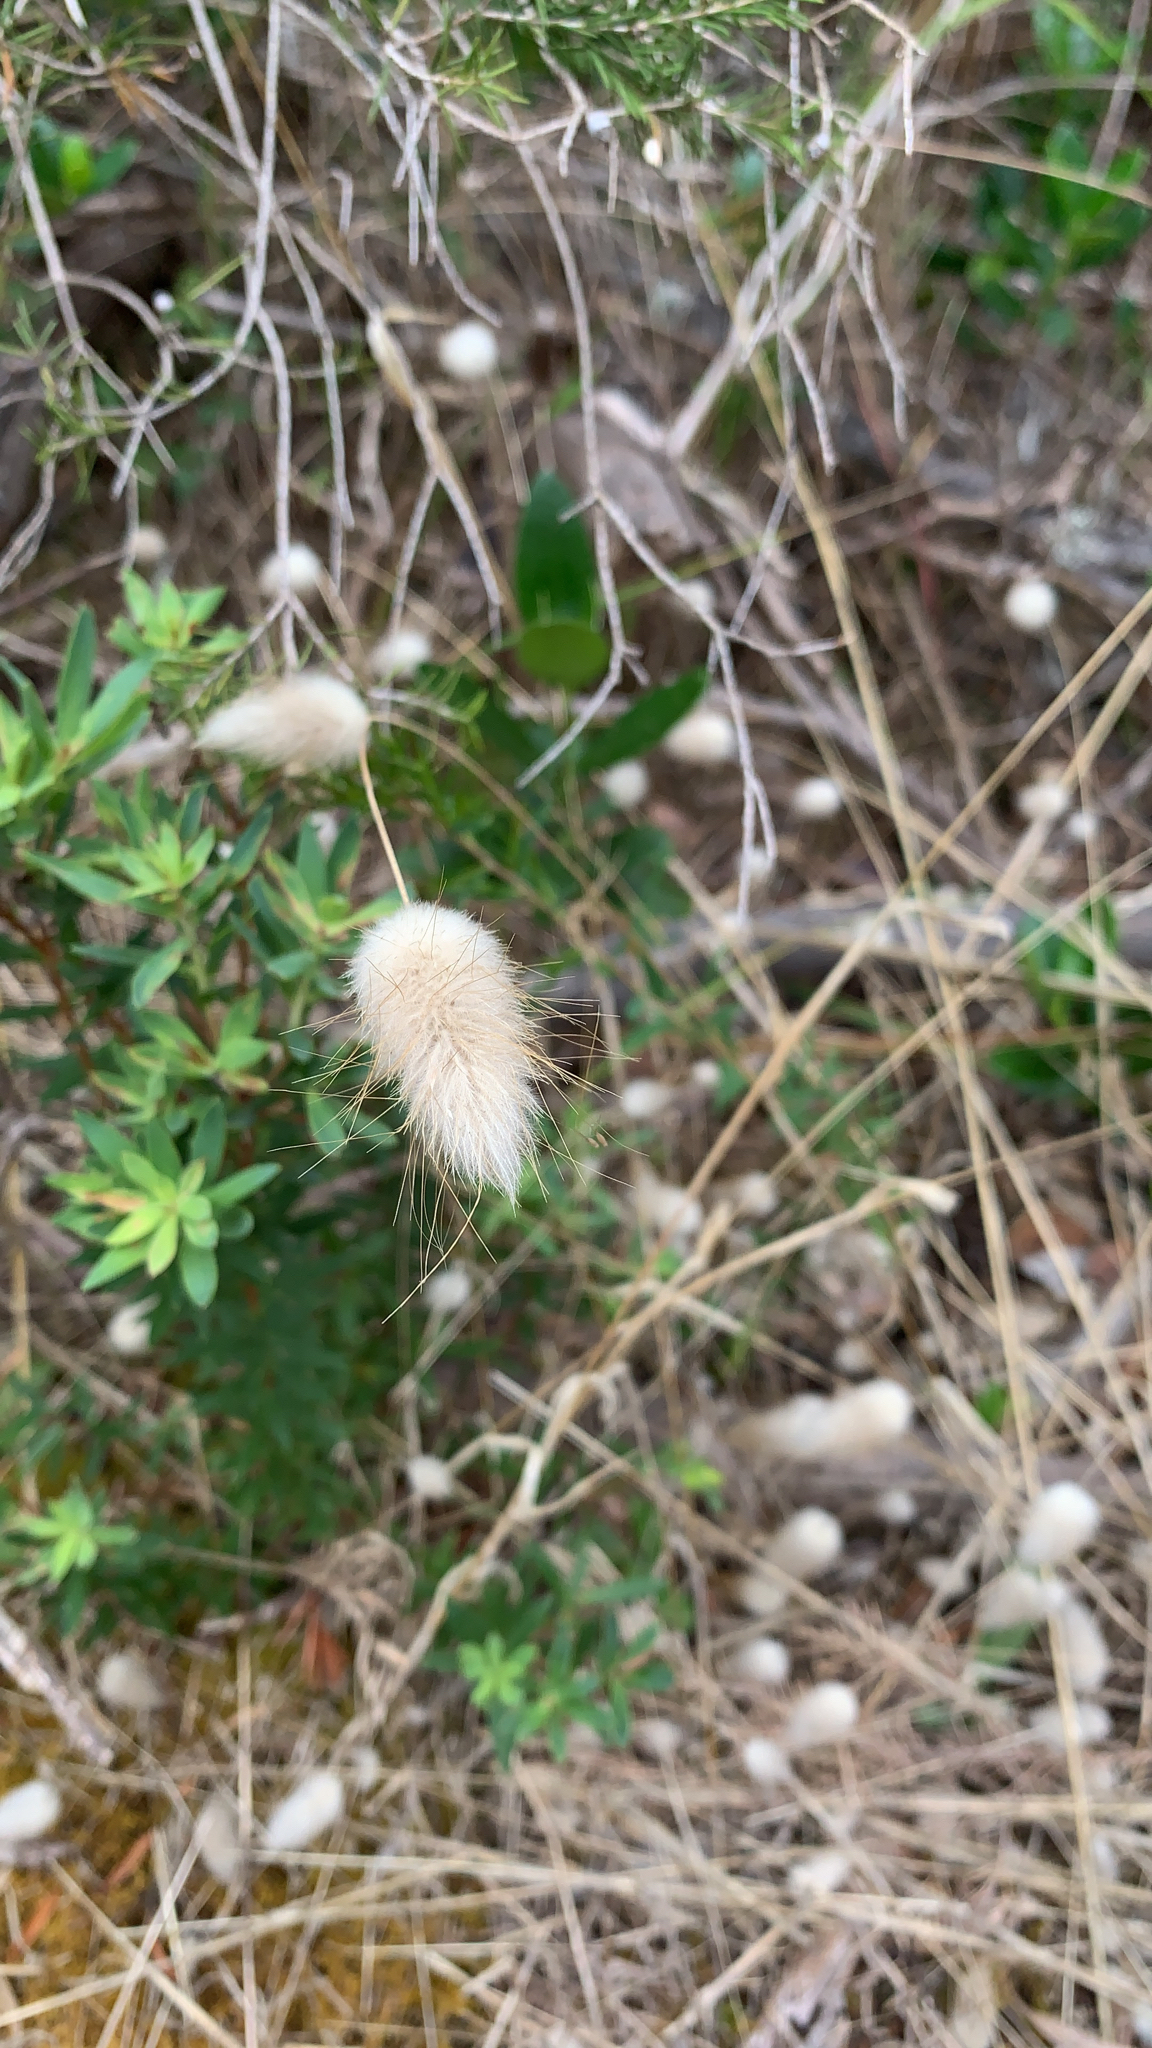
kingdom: Plantae
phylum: Tracheophyta
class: Liliopsida
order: Poales
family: Poaceae
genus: Lagurus
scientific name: Lagurus ovatus
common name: Hare's-tail
